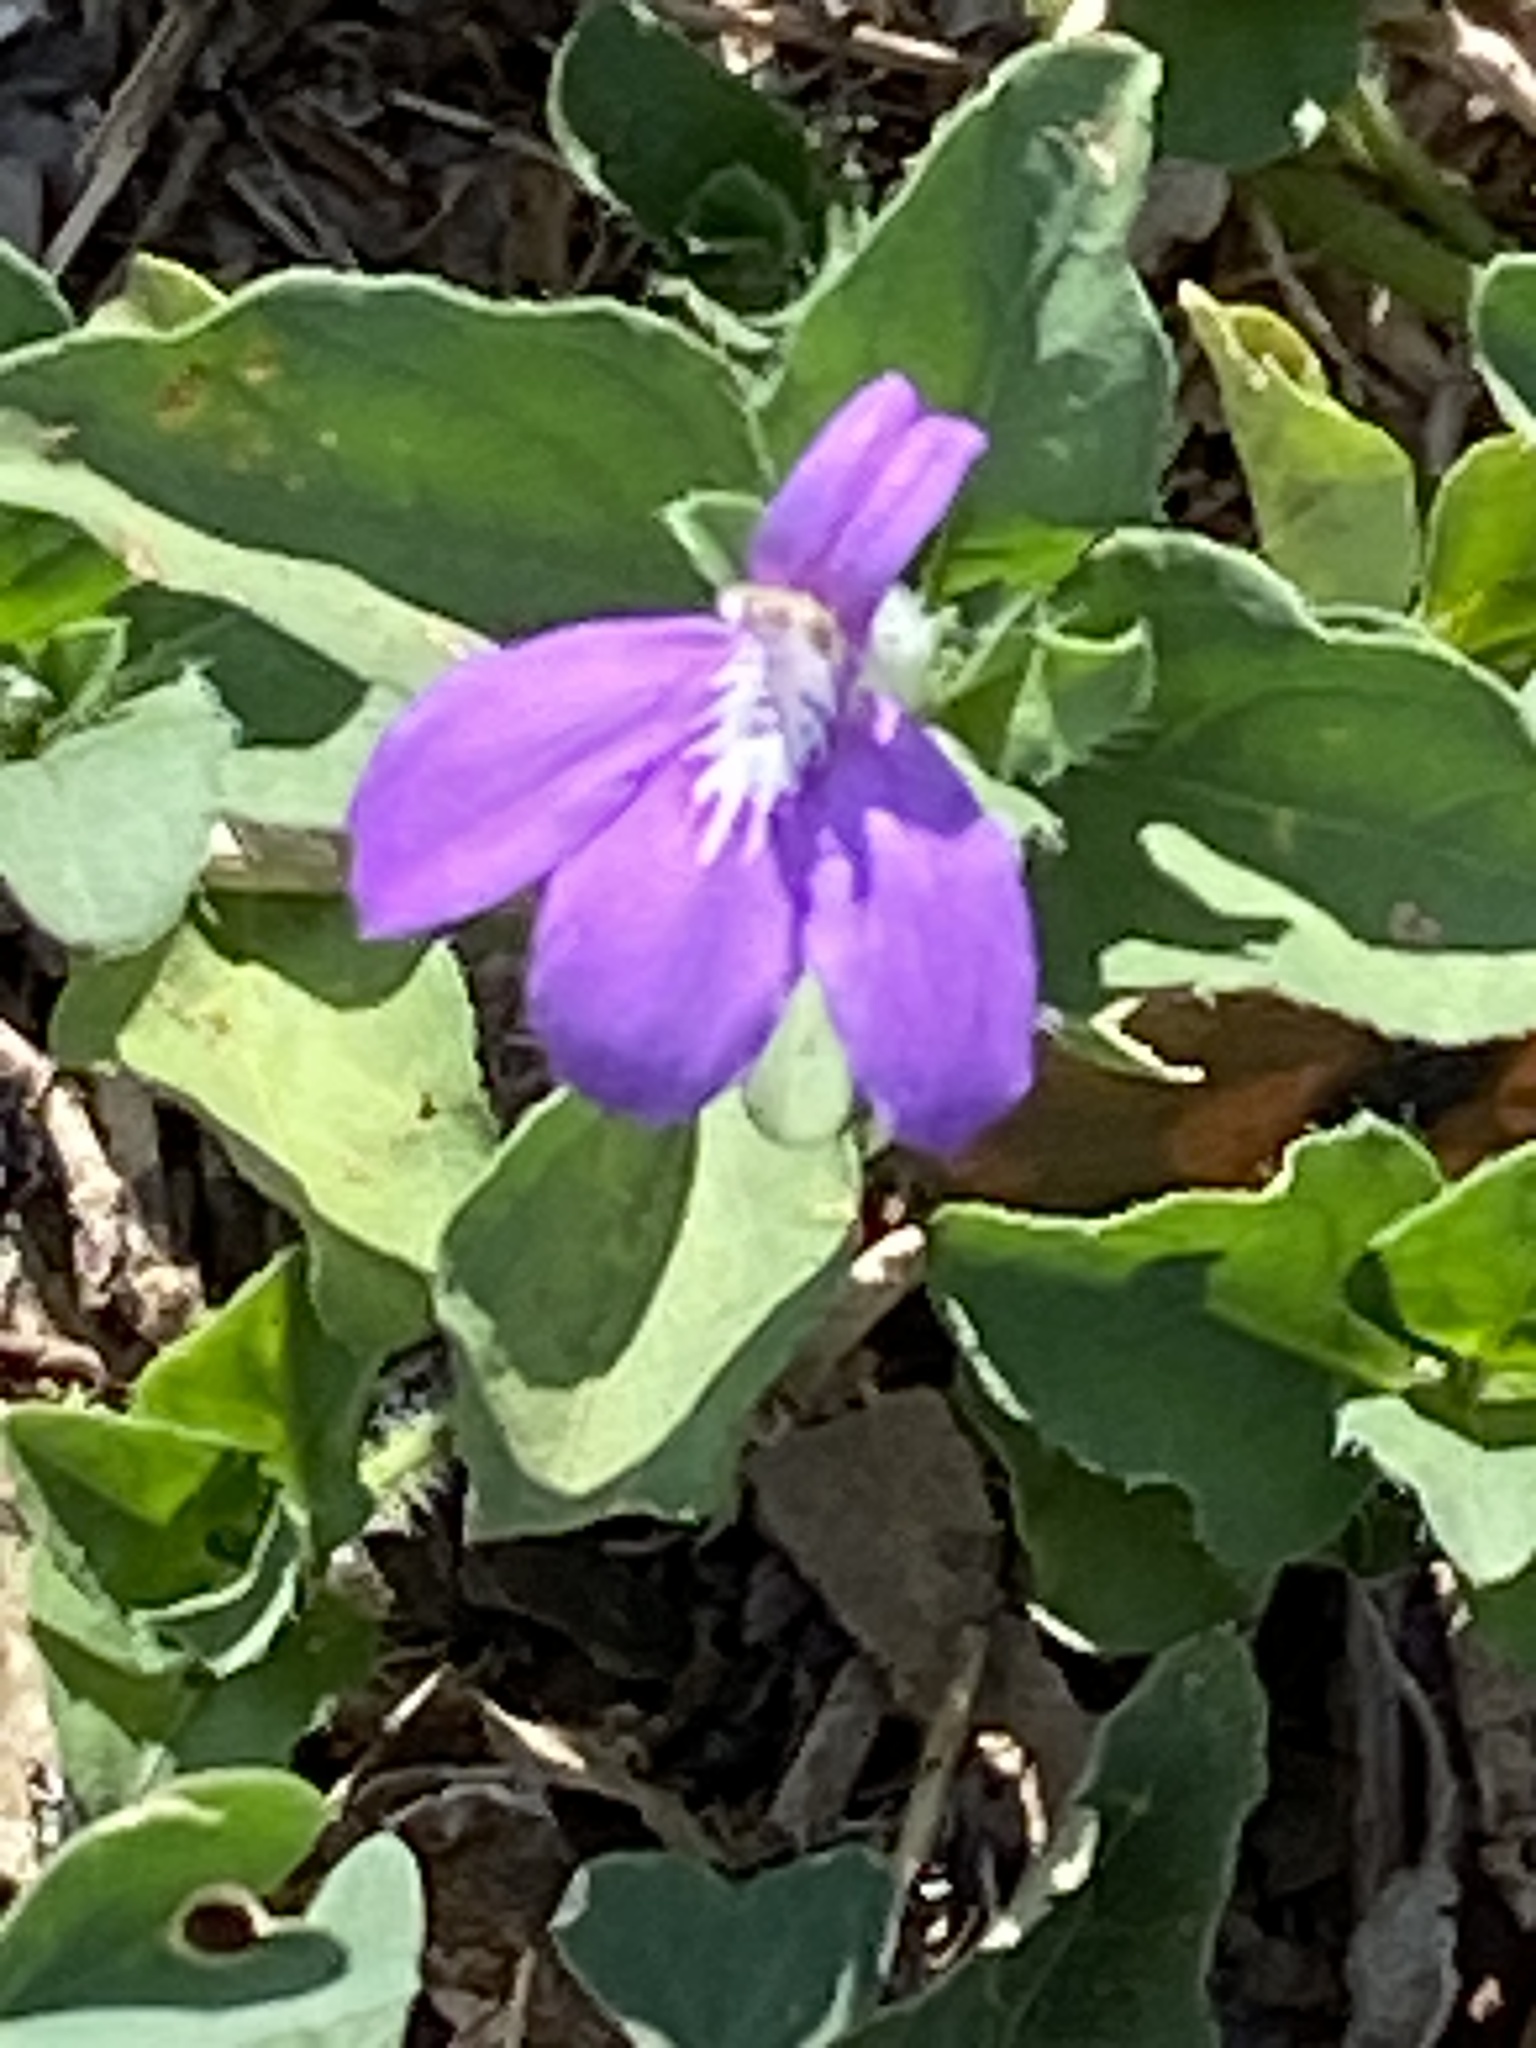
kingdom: Plantae
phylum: Tracheophyta
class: Magnoliopsida
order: Lamiales
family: Acanthaceae
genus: Justicia
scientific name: Justicia pilosella
